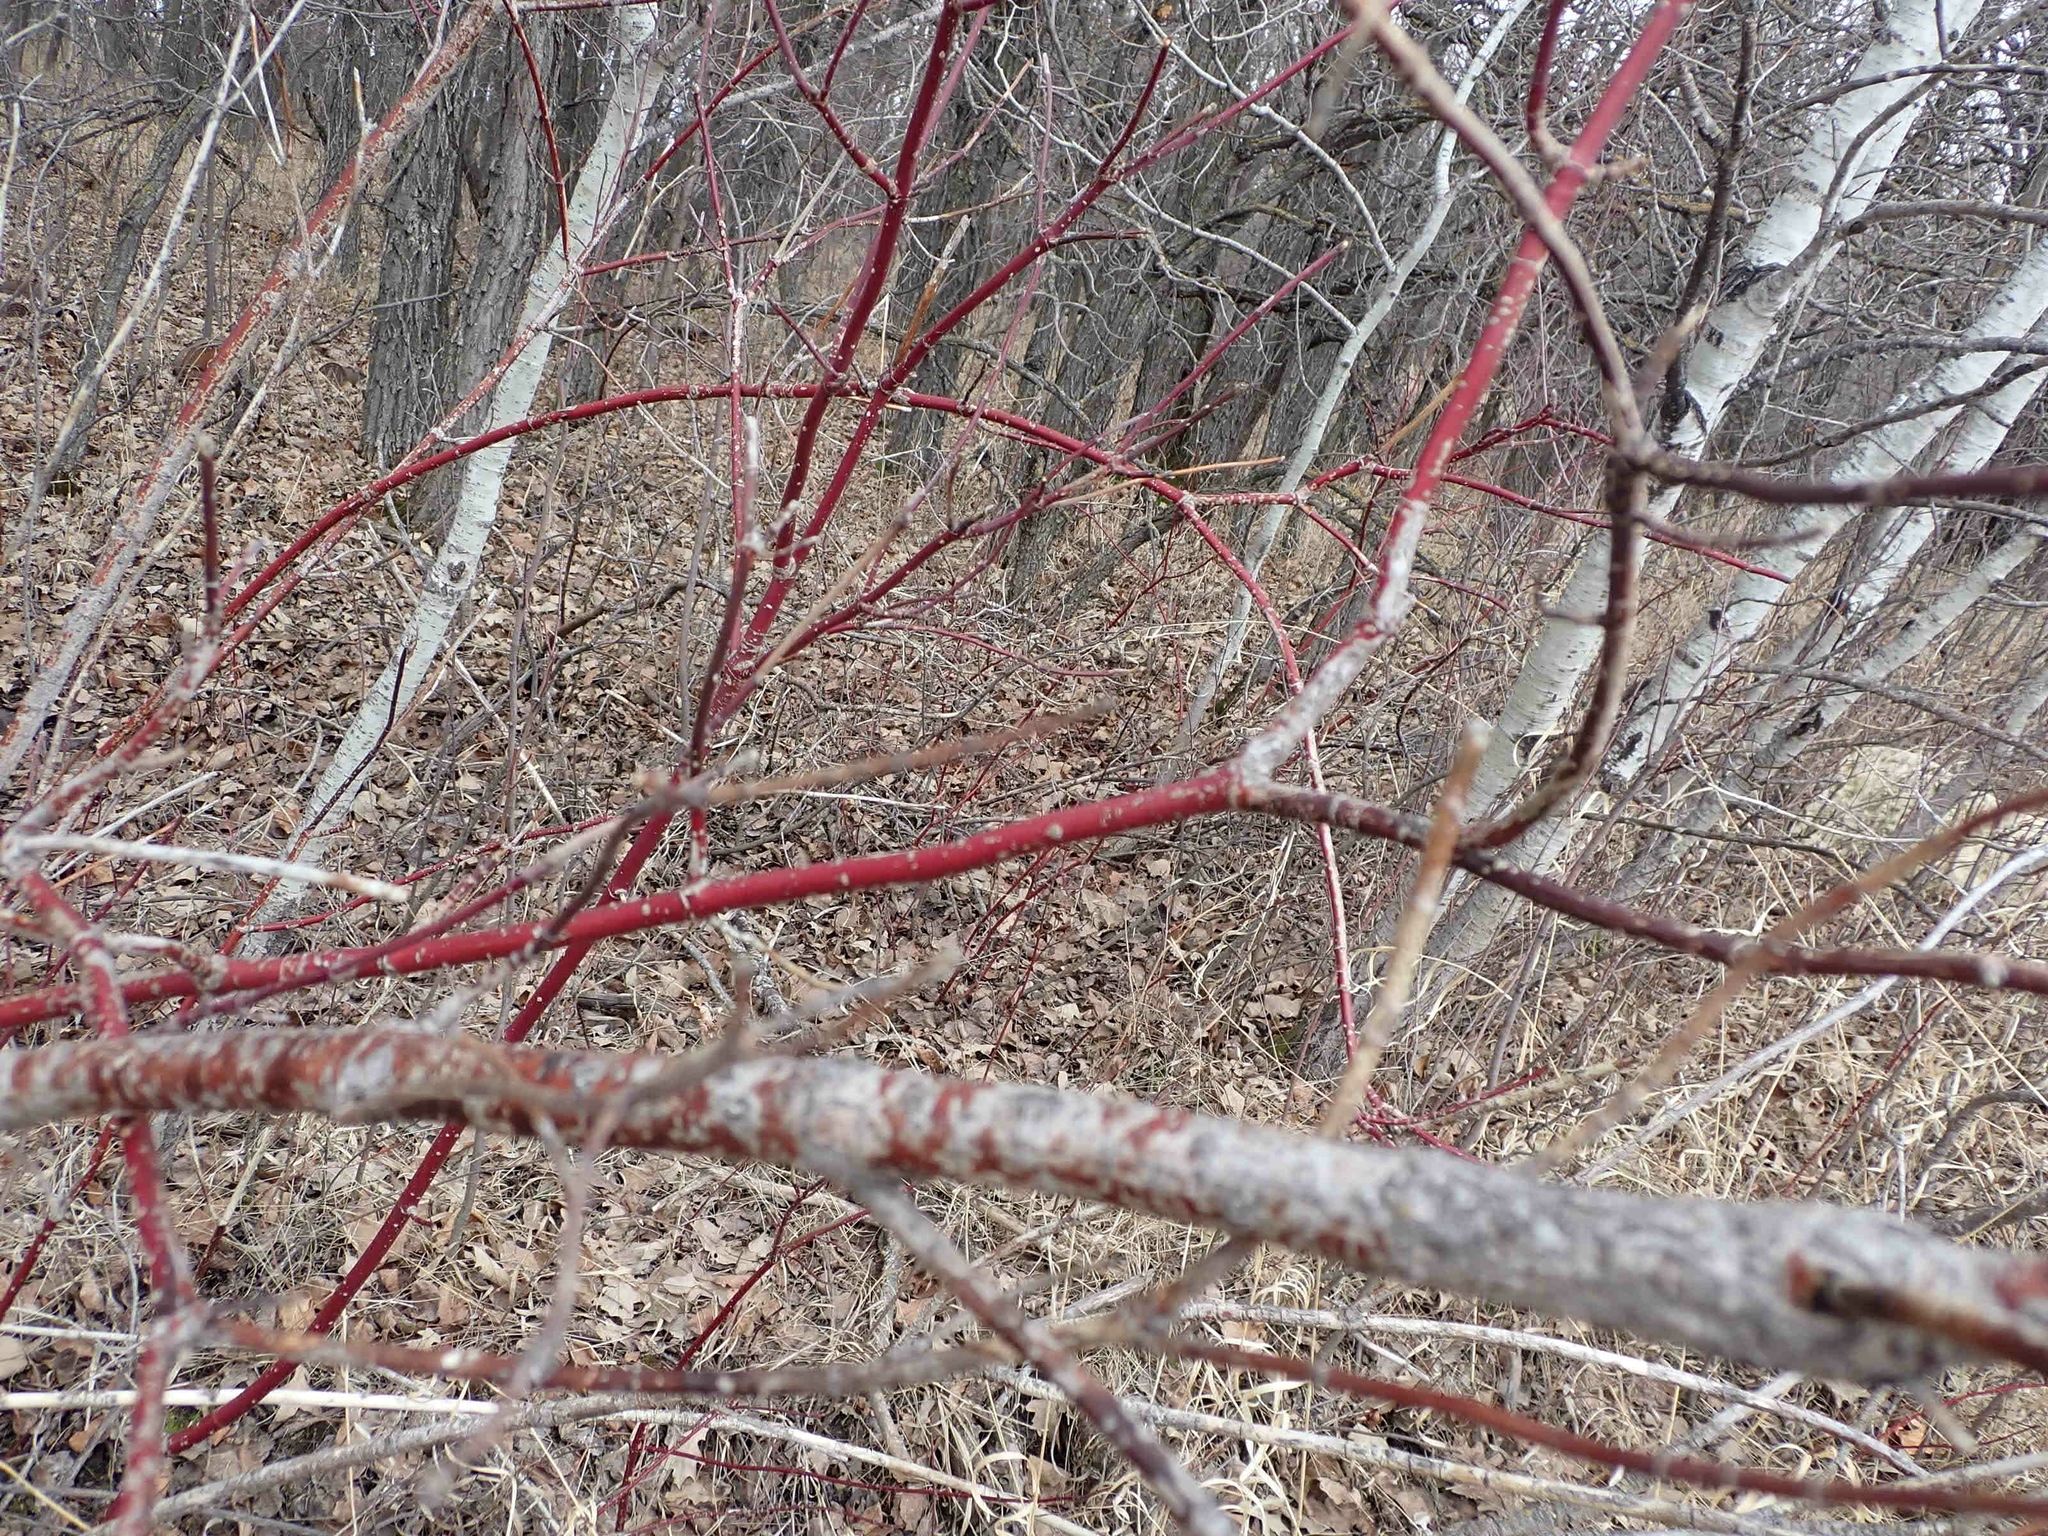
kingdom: Plantae
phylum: Tracheophyta
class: Magnoliopsida
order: Cornales
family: Cornaceae
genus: Cornus
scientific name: Cornus sericea
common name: Red-osier dogwood
